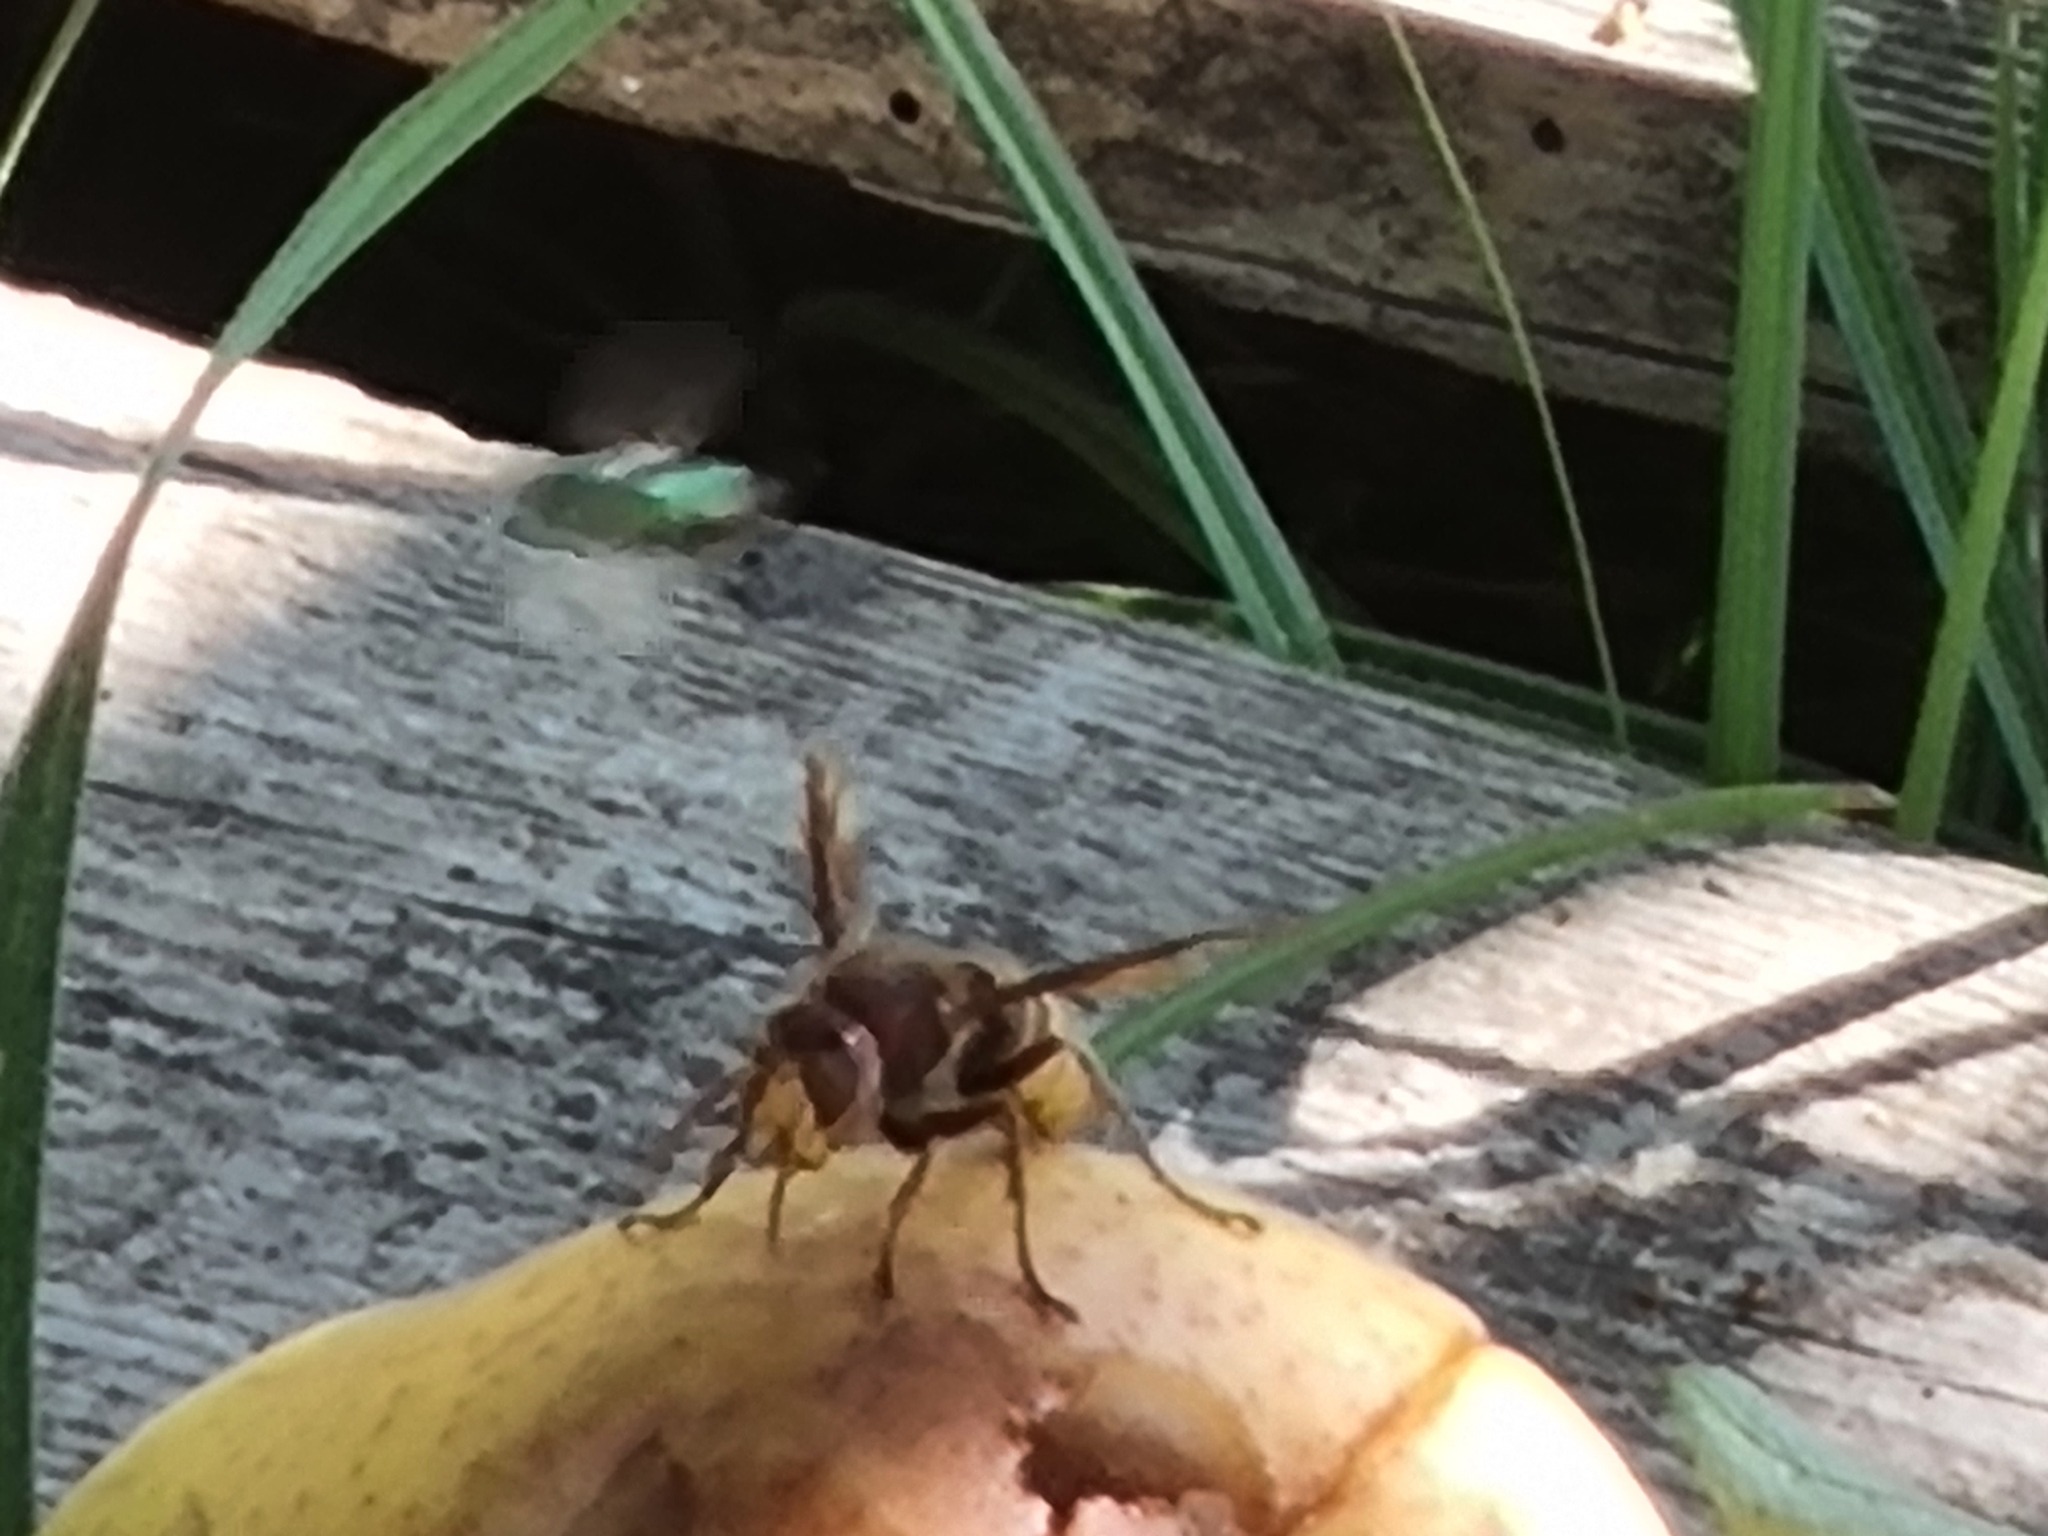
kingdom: Animalia
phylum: Arthropoda
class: Insecta
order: Hymenoptera
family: Vespidae
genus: Vespa
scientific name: Vespa crabro
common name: Hornet
